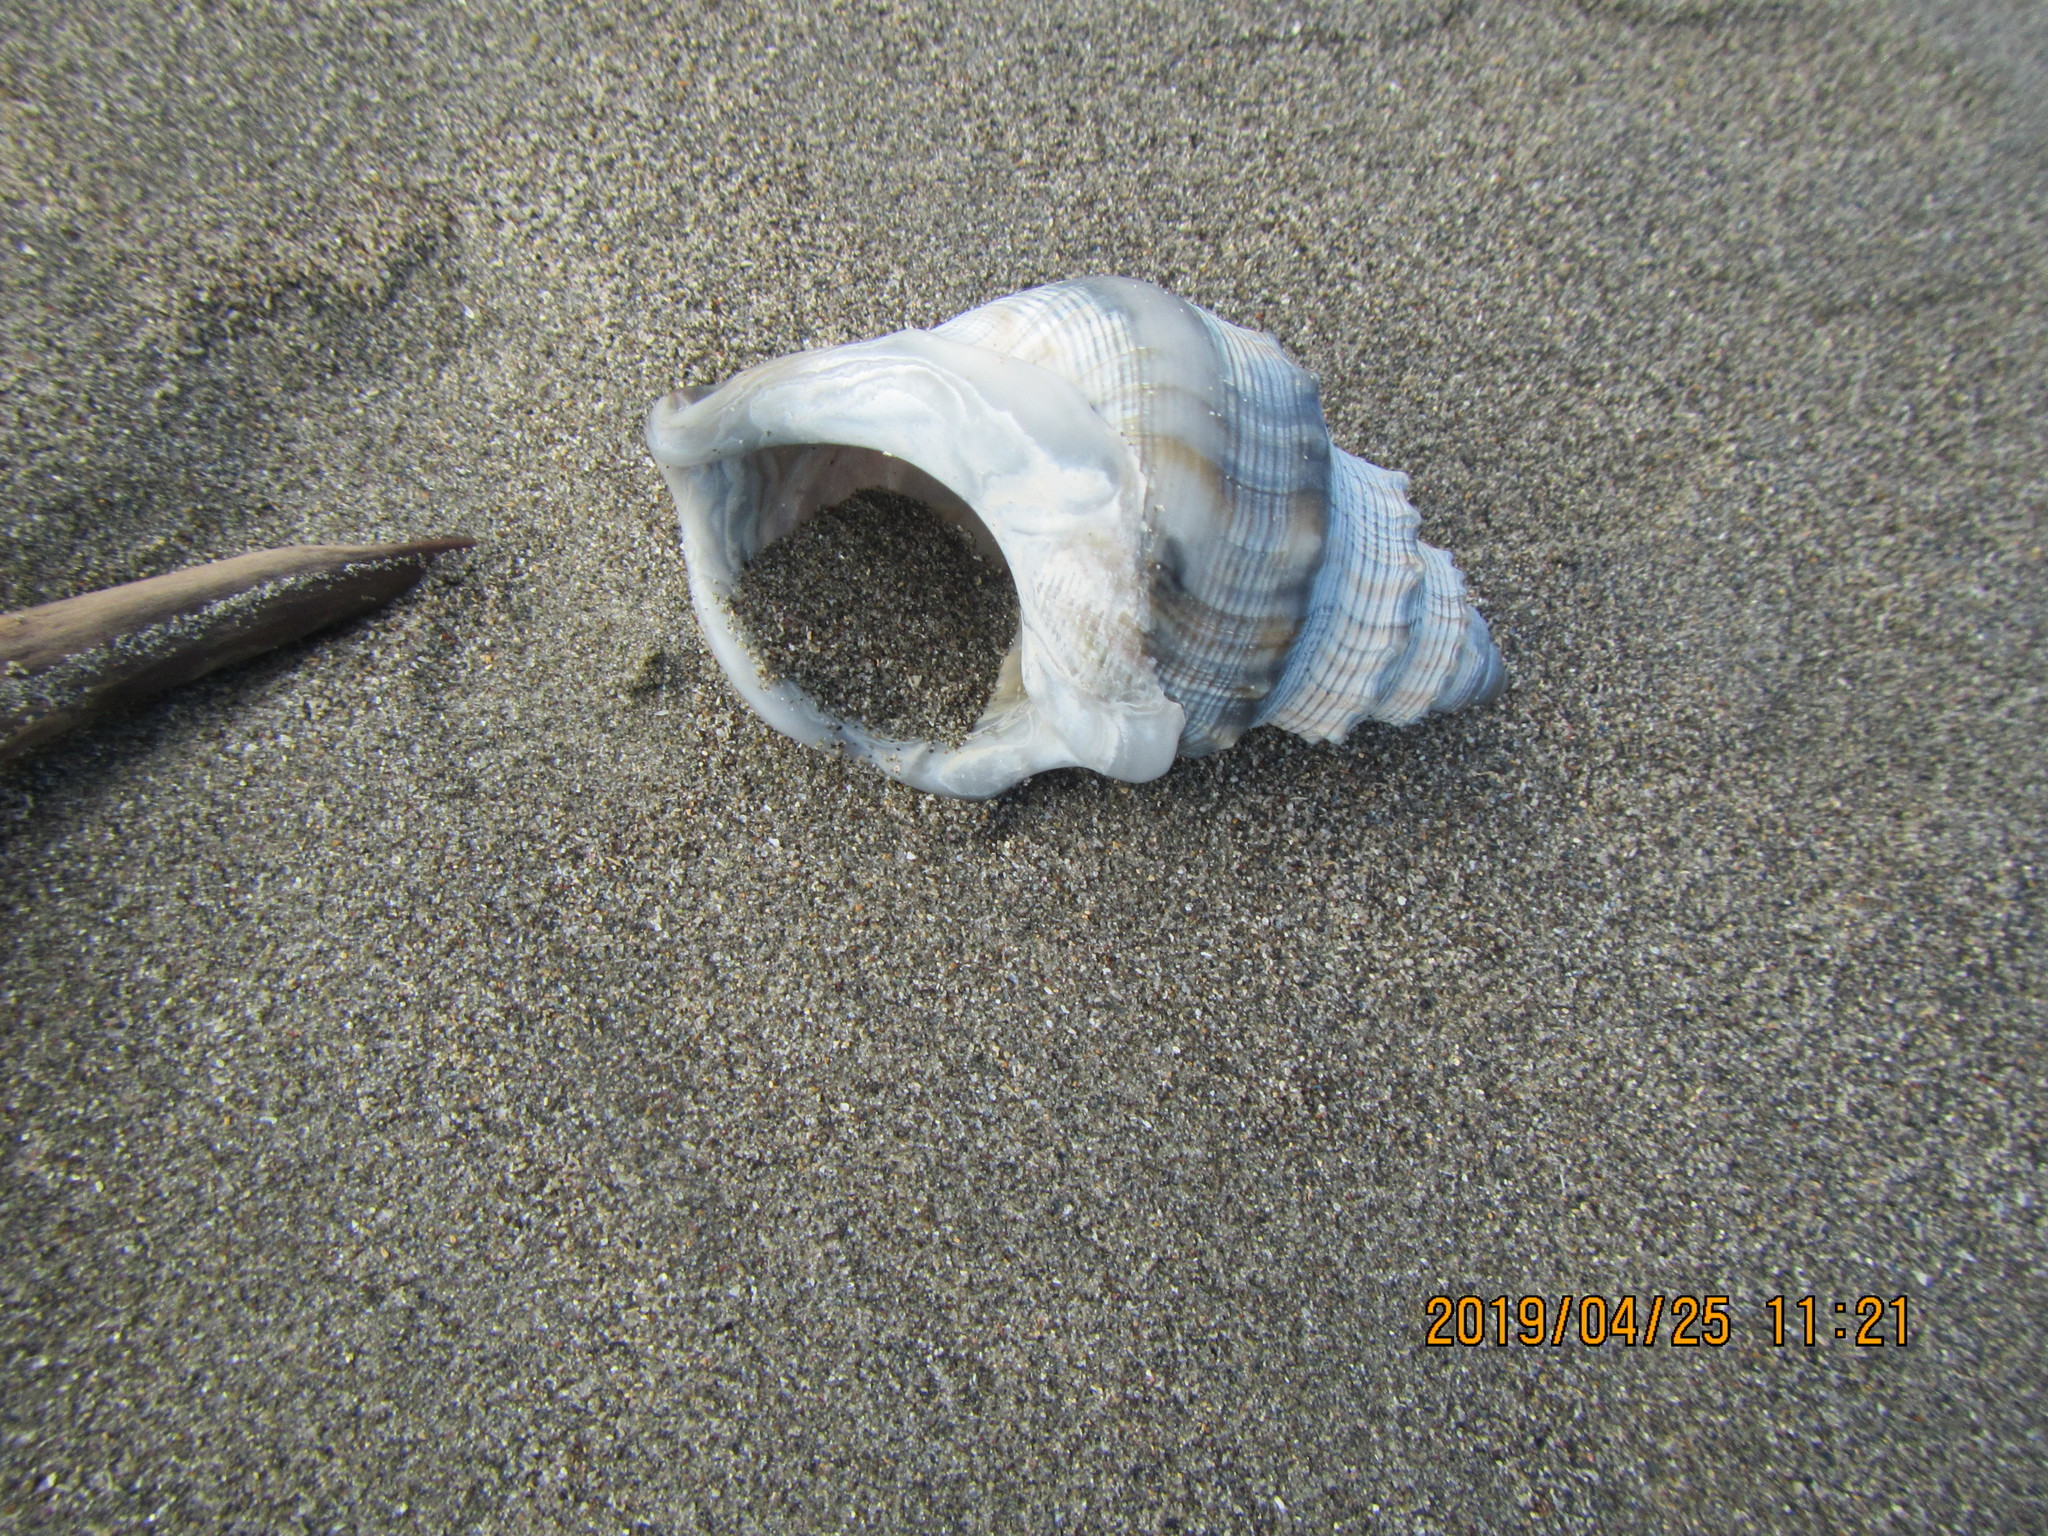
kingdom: Animalia
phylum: Mollusca
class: Gastropoda
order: Littorinimorpha
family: Struthiolariidae
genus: Struthiolaria
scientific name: Struthiolaria papulosa
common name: Large ostrich foot
